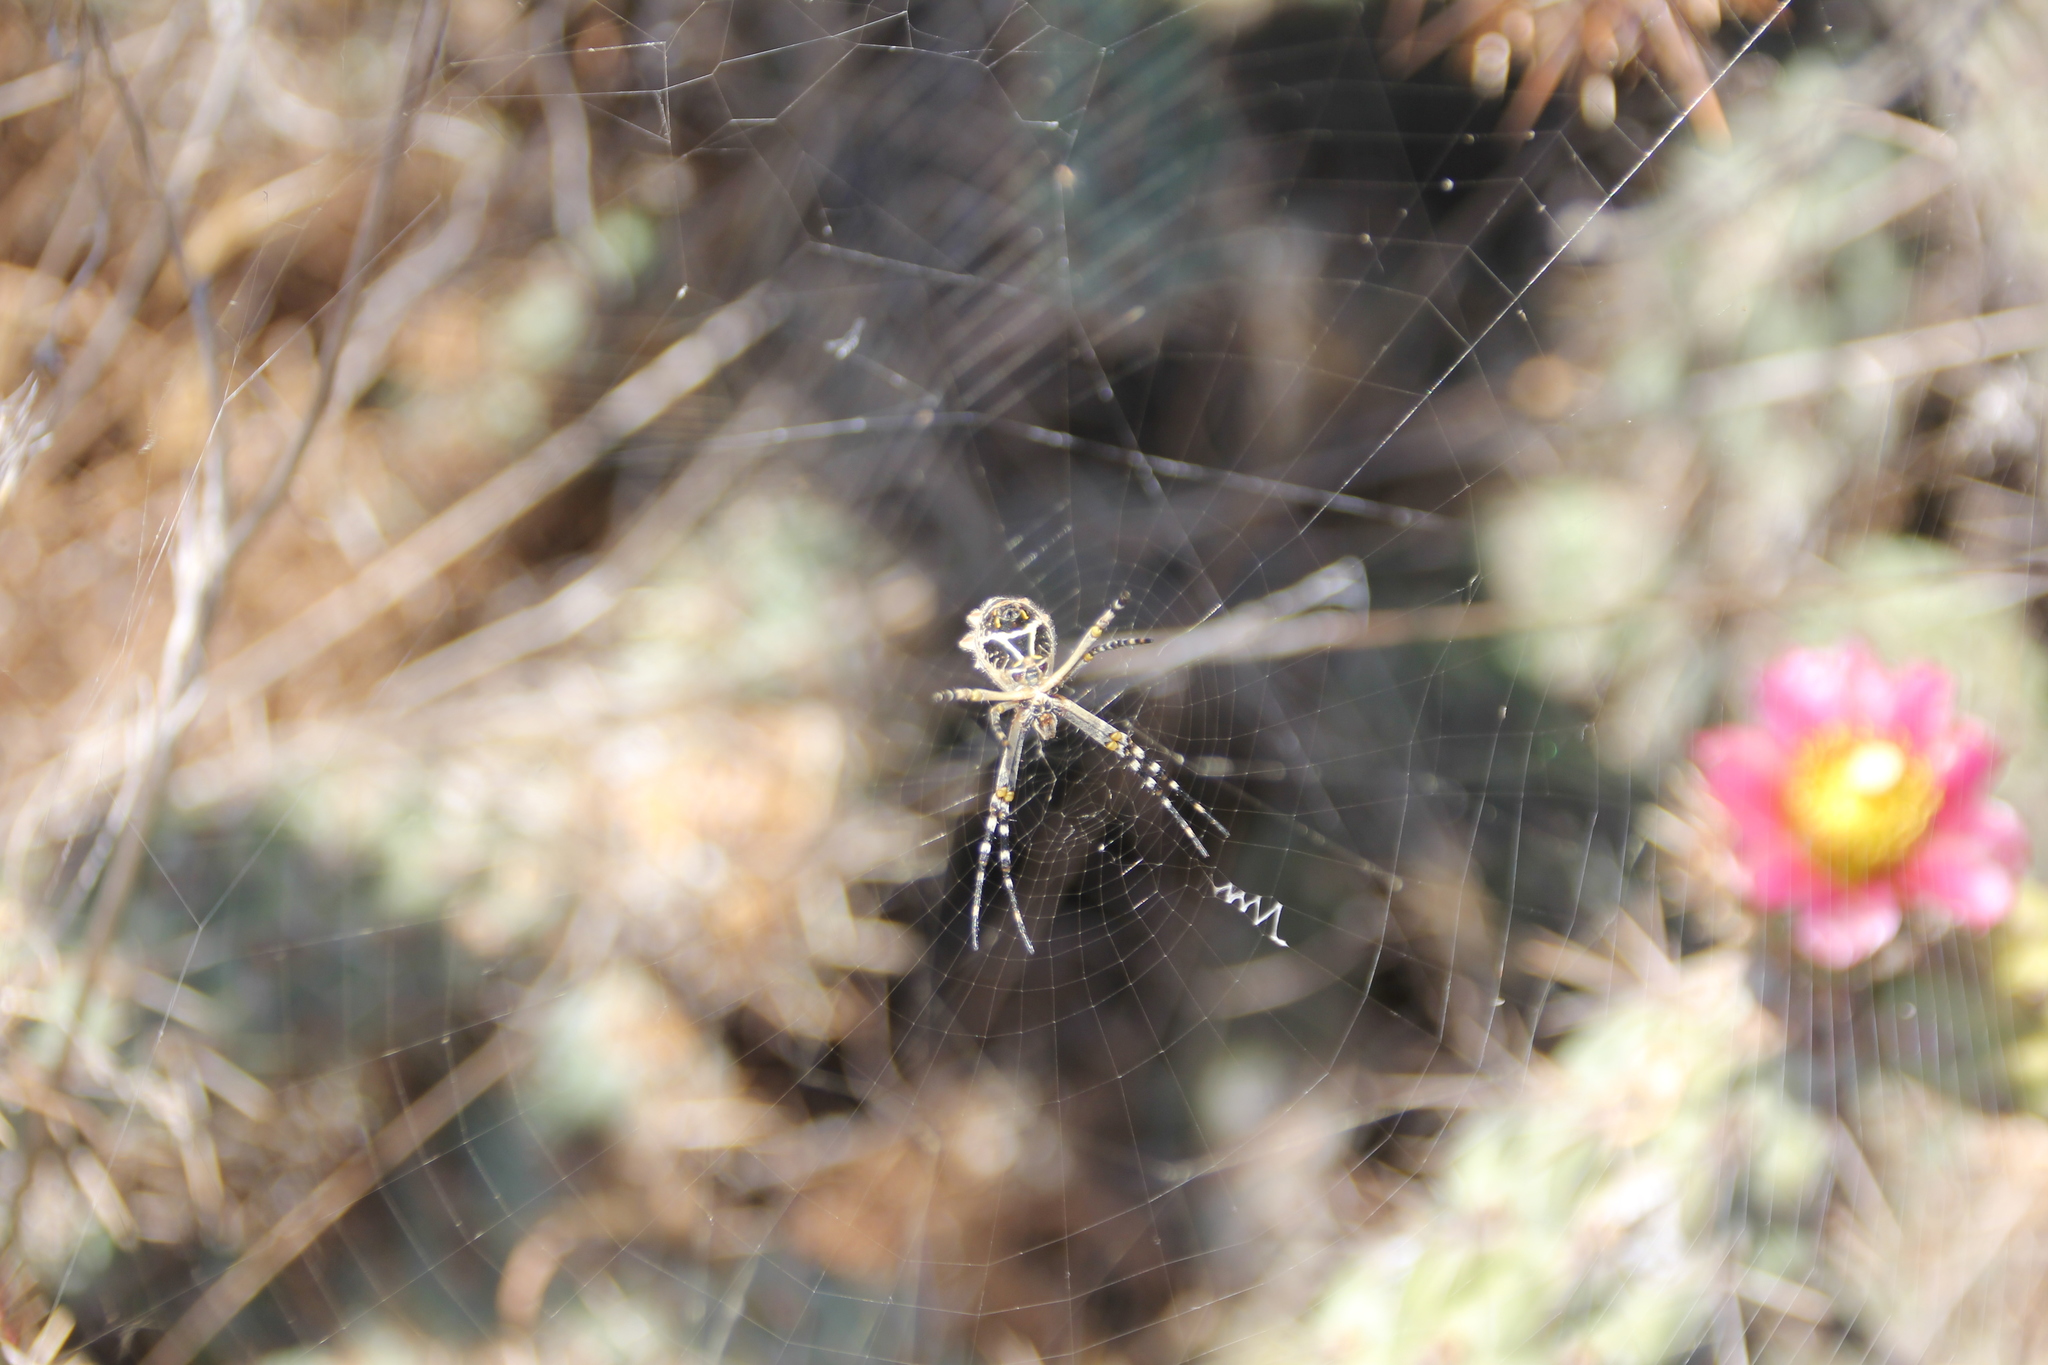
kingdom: Animalia
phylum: Arthropoda
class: Arachnida
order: Araneae
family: Araneidae
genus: Argiope
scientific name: Argiope argentata
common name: Orb weavers
